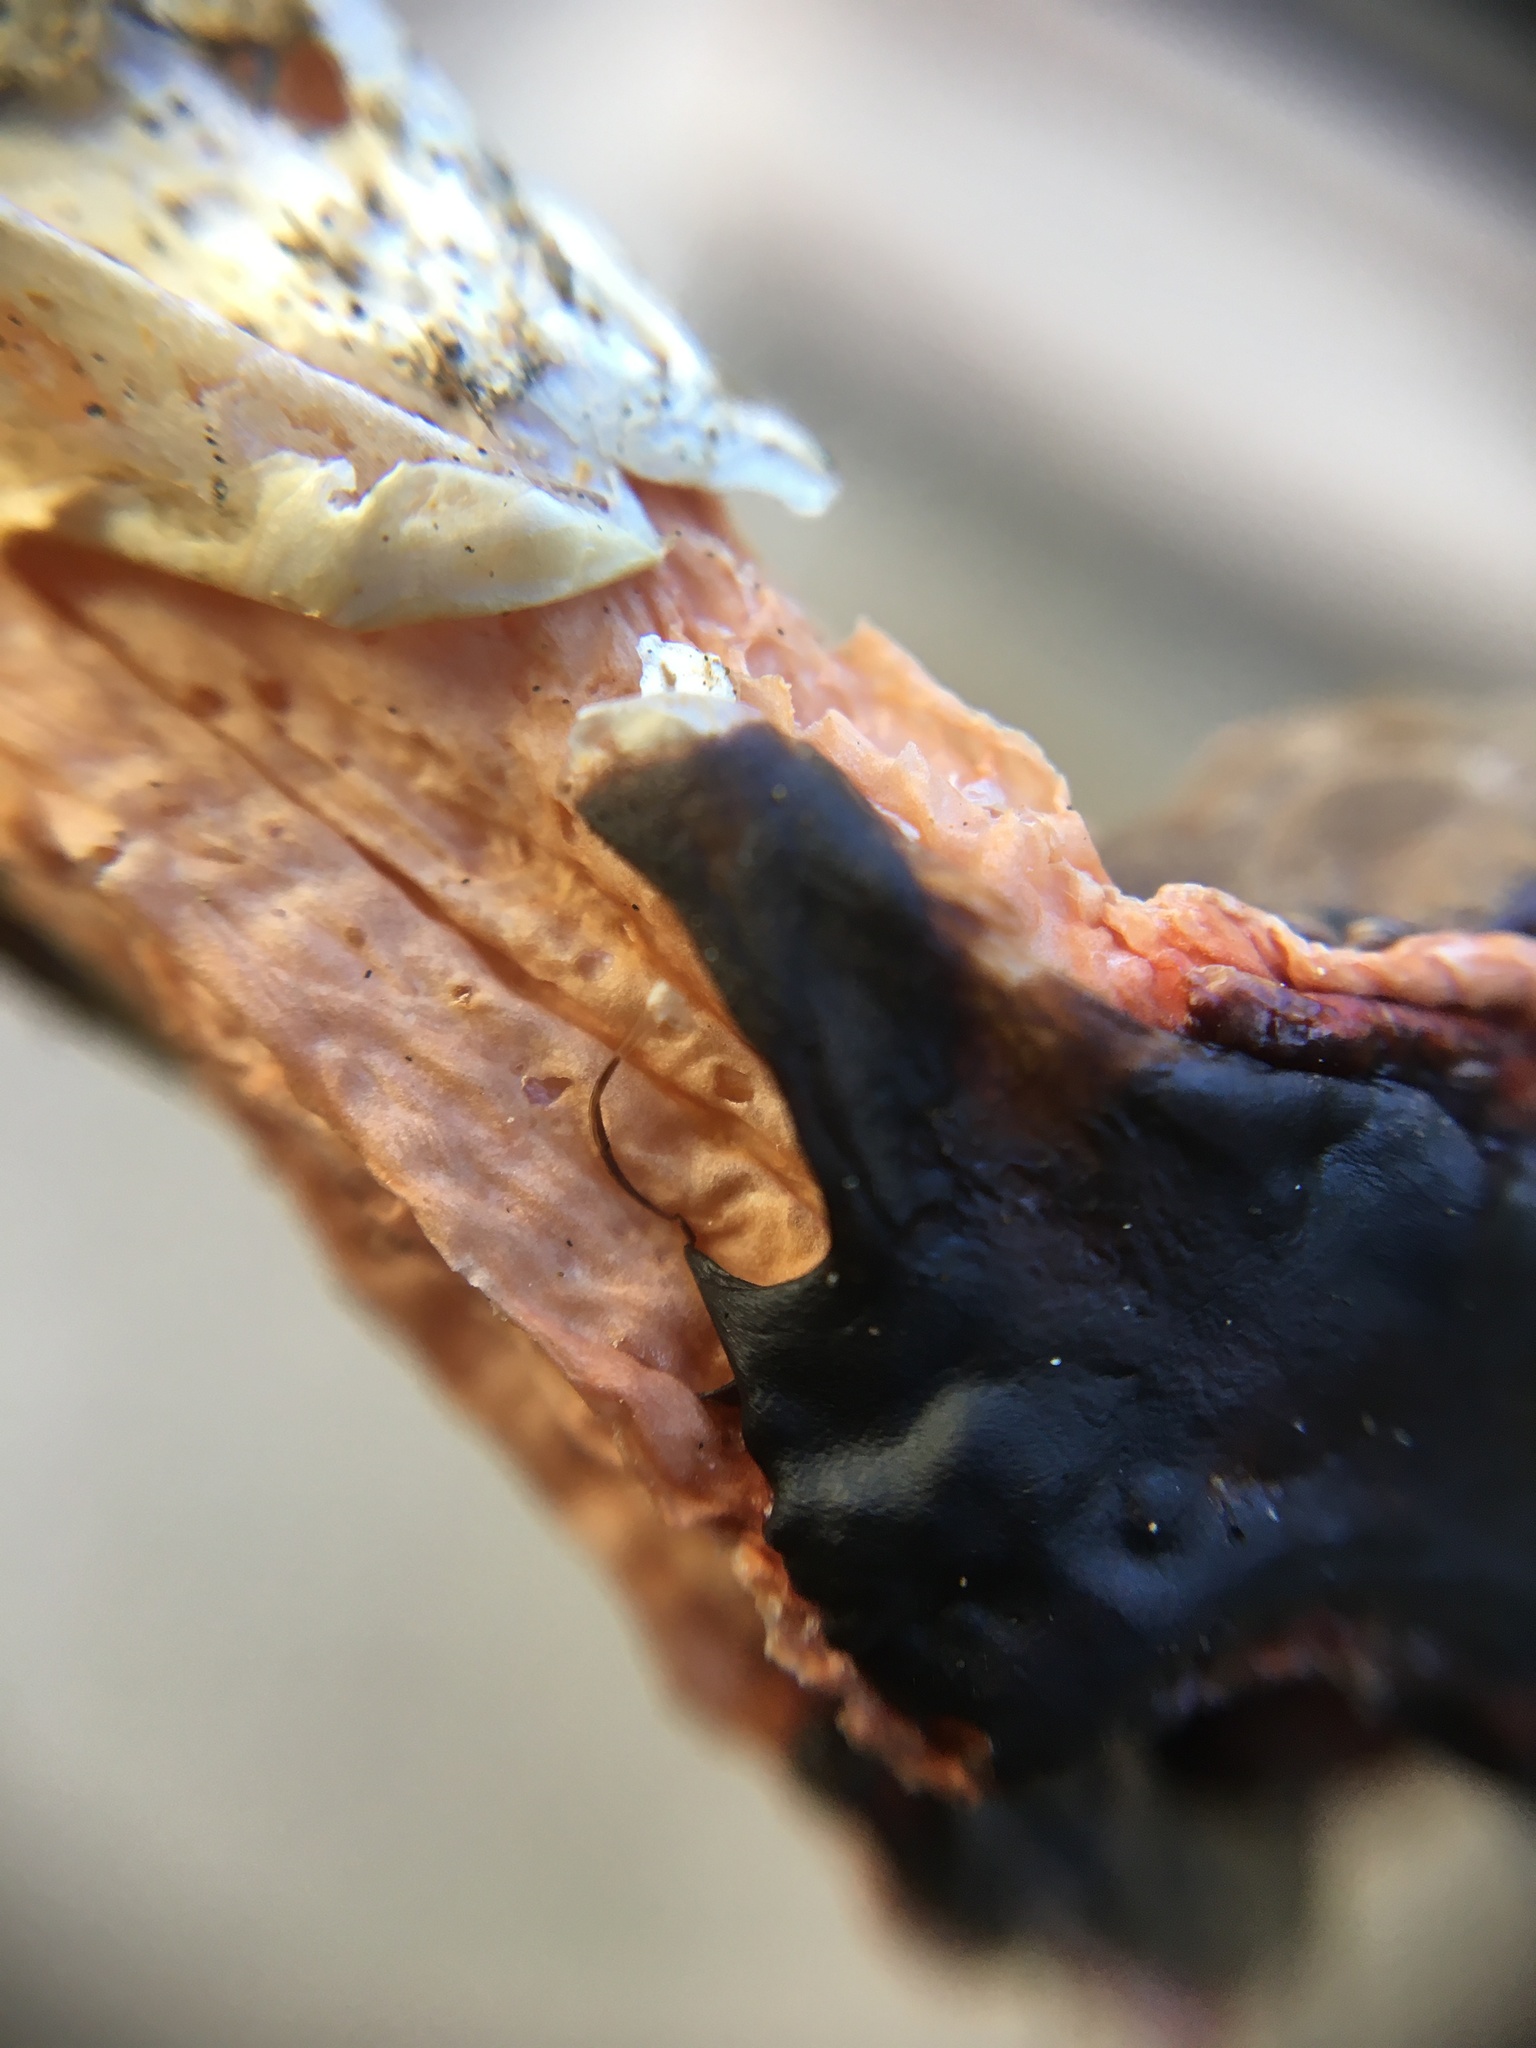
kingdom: Fungi
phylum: Basidiomycota
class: Agaricomycetes
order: Phallales
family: Phallaceae
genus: Lysurus
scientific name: Lysurus mokusin
